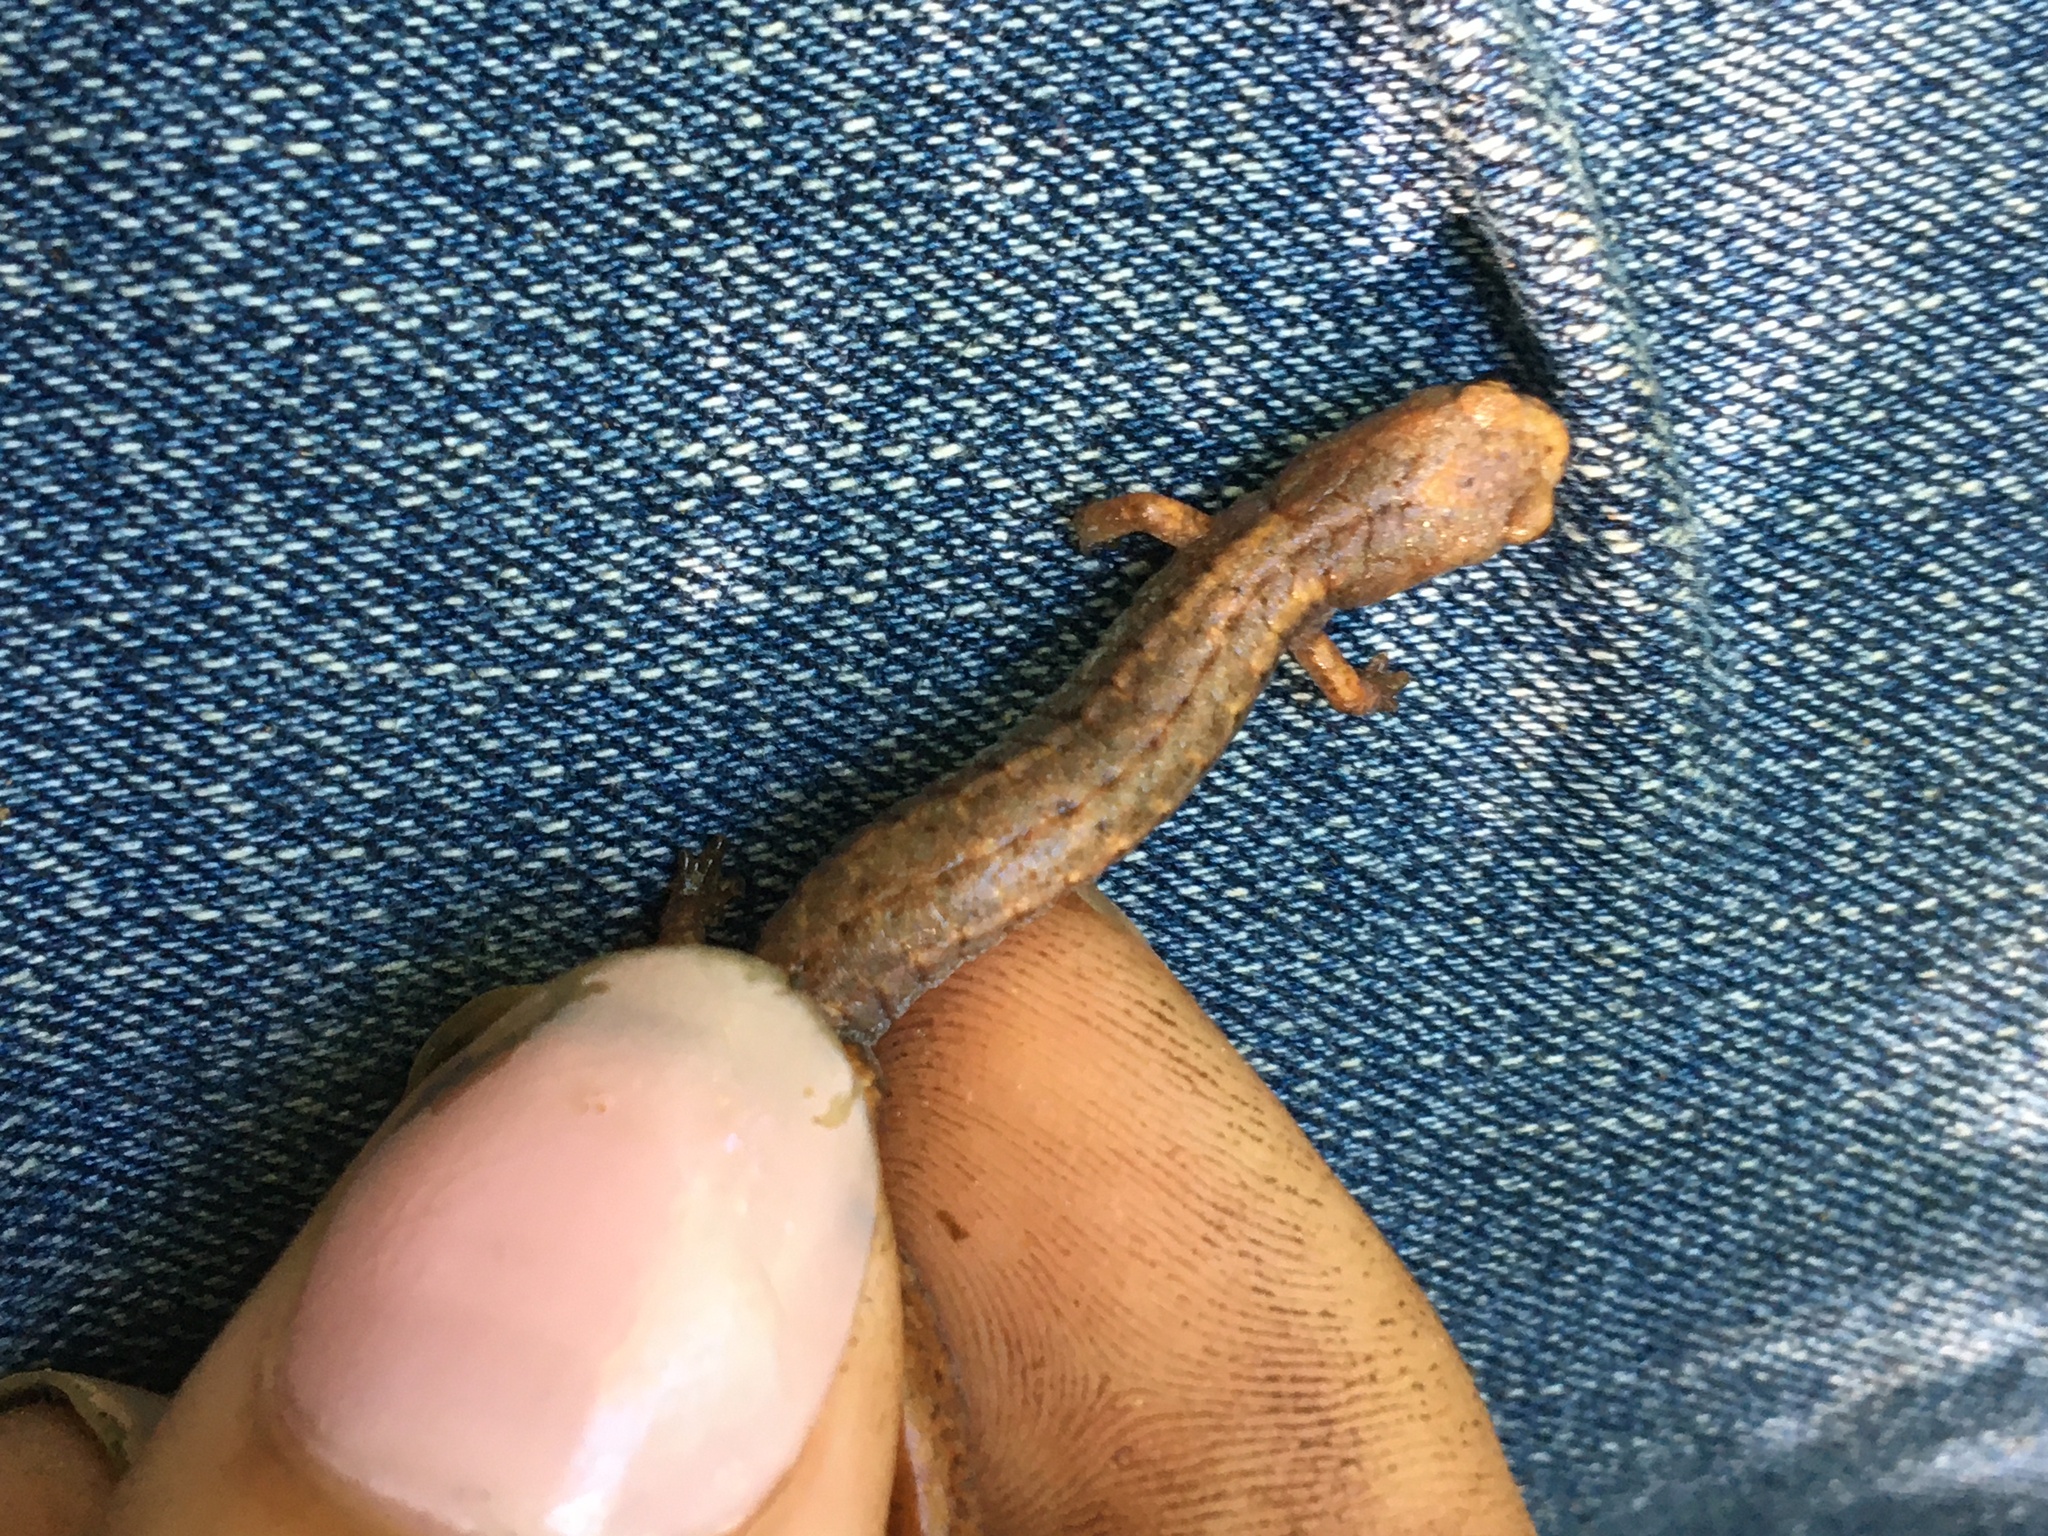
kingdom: Animalia
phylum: Chordata
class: Amphibia
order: Caudata
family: Plethodontidae
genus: Hemidactylium
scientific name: Hemidactylium scutatum
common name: Four-toed salamander
